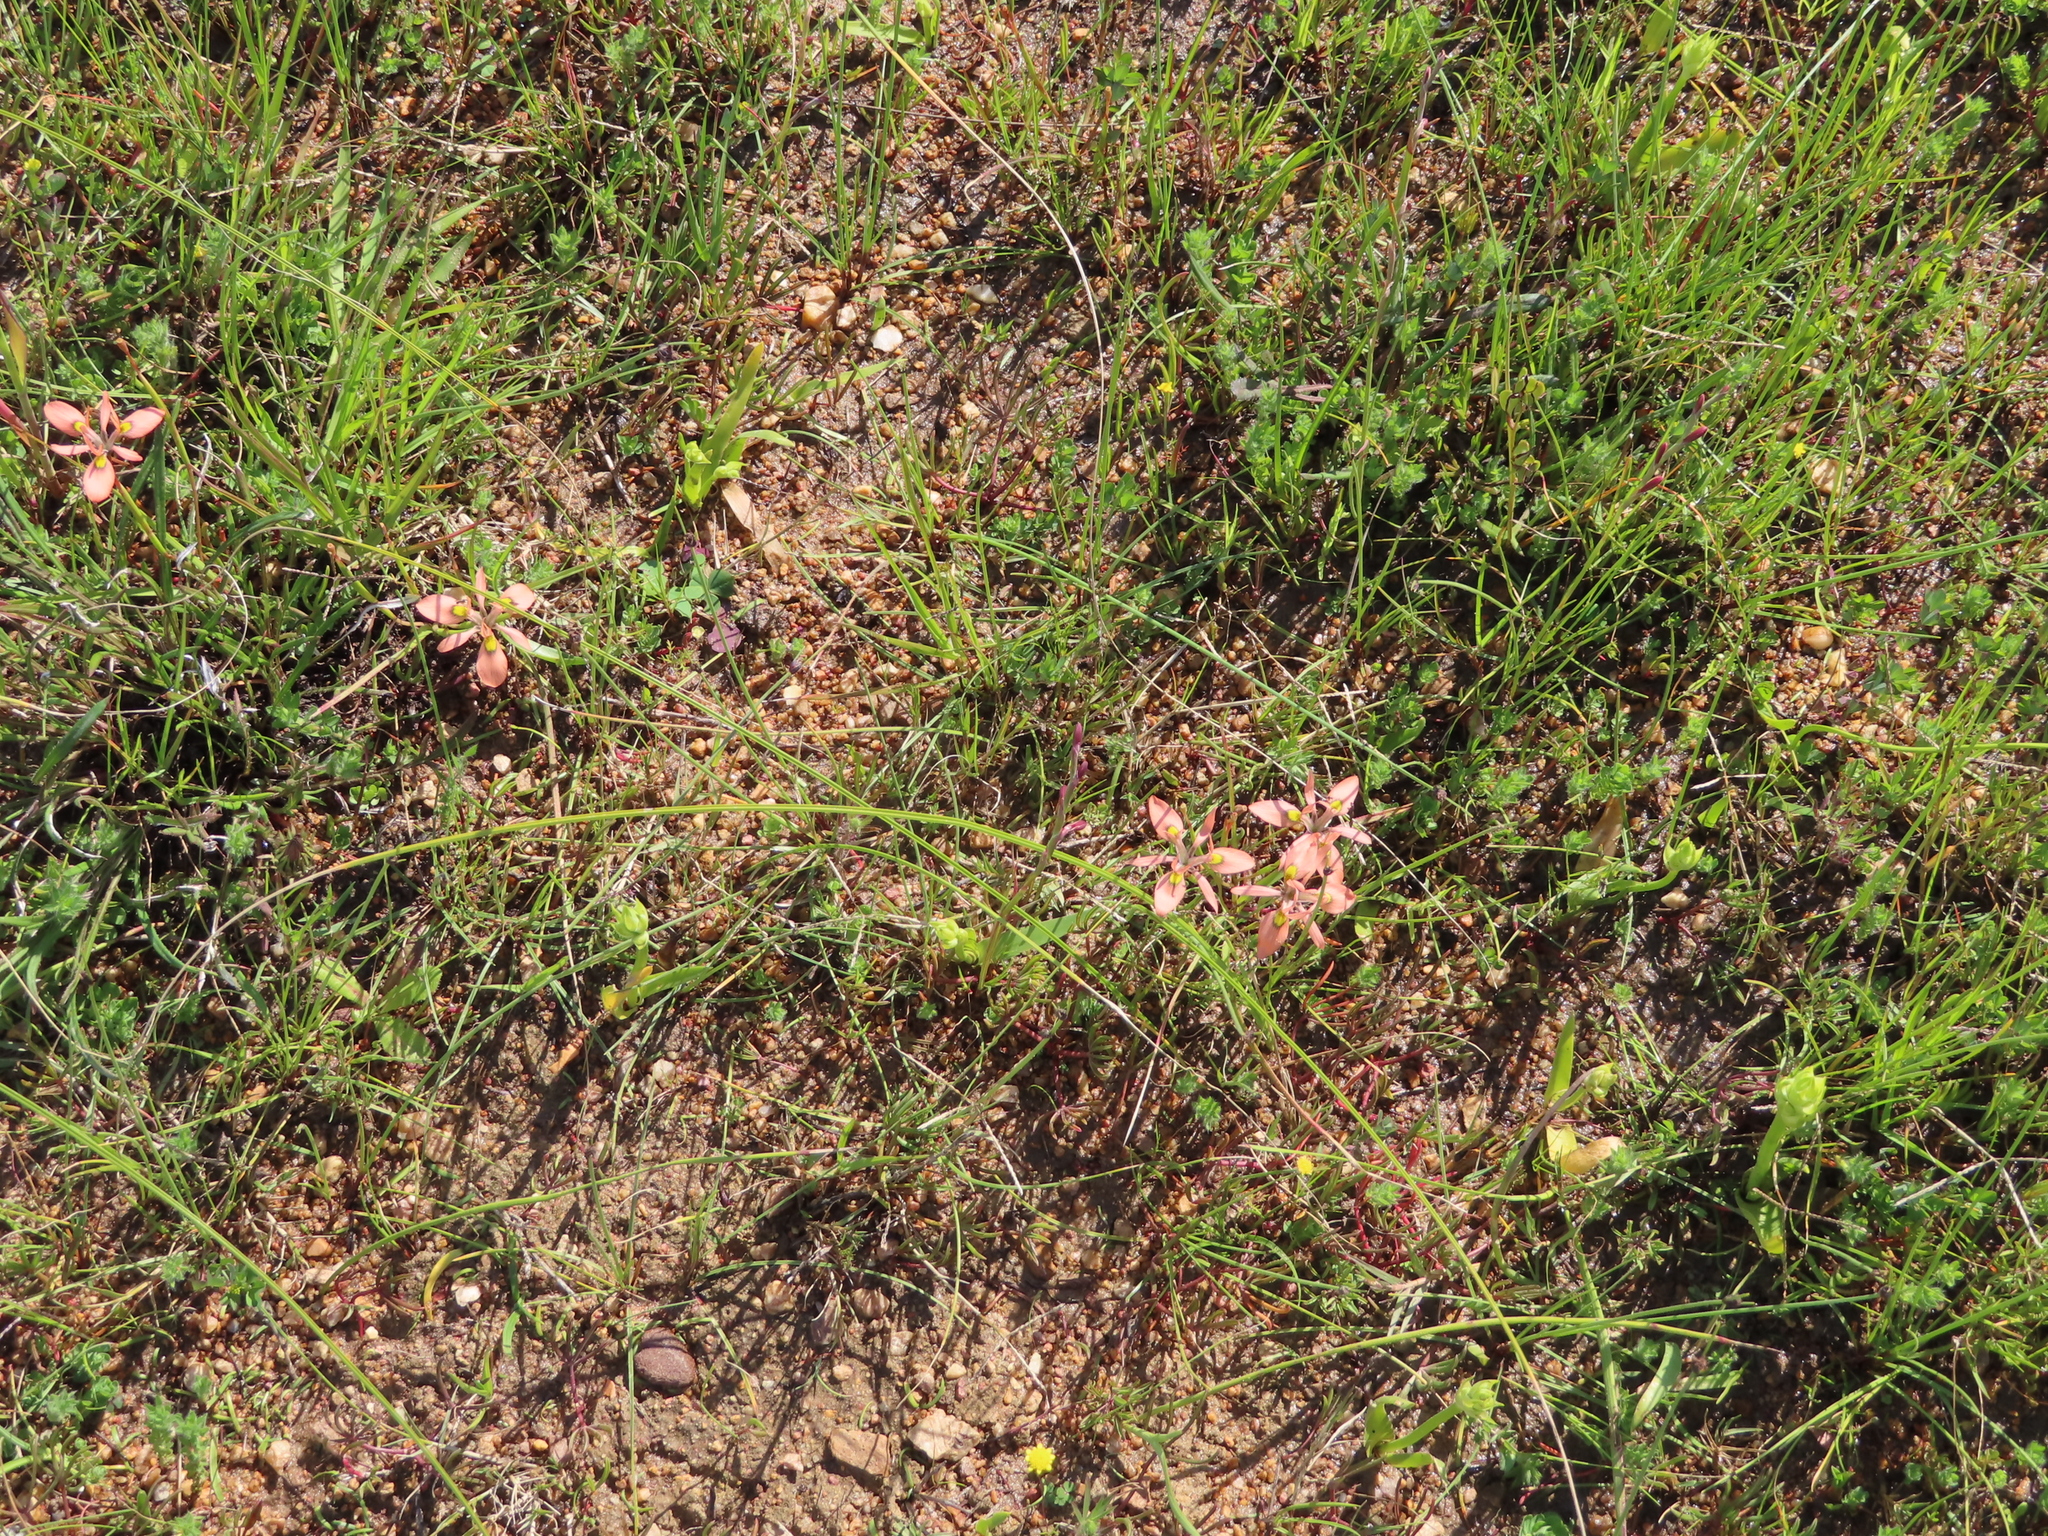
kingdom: Plantae
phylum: Tracheophyta
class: Liliopsida
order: Asparagales
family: Iridaceae
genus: Moraea
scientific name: Moraea papilionacea
